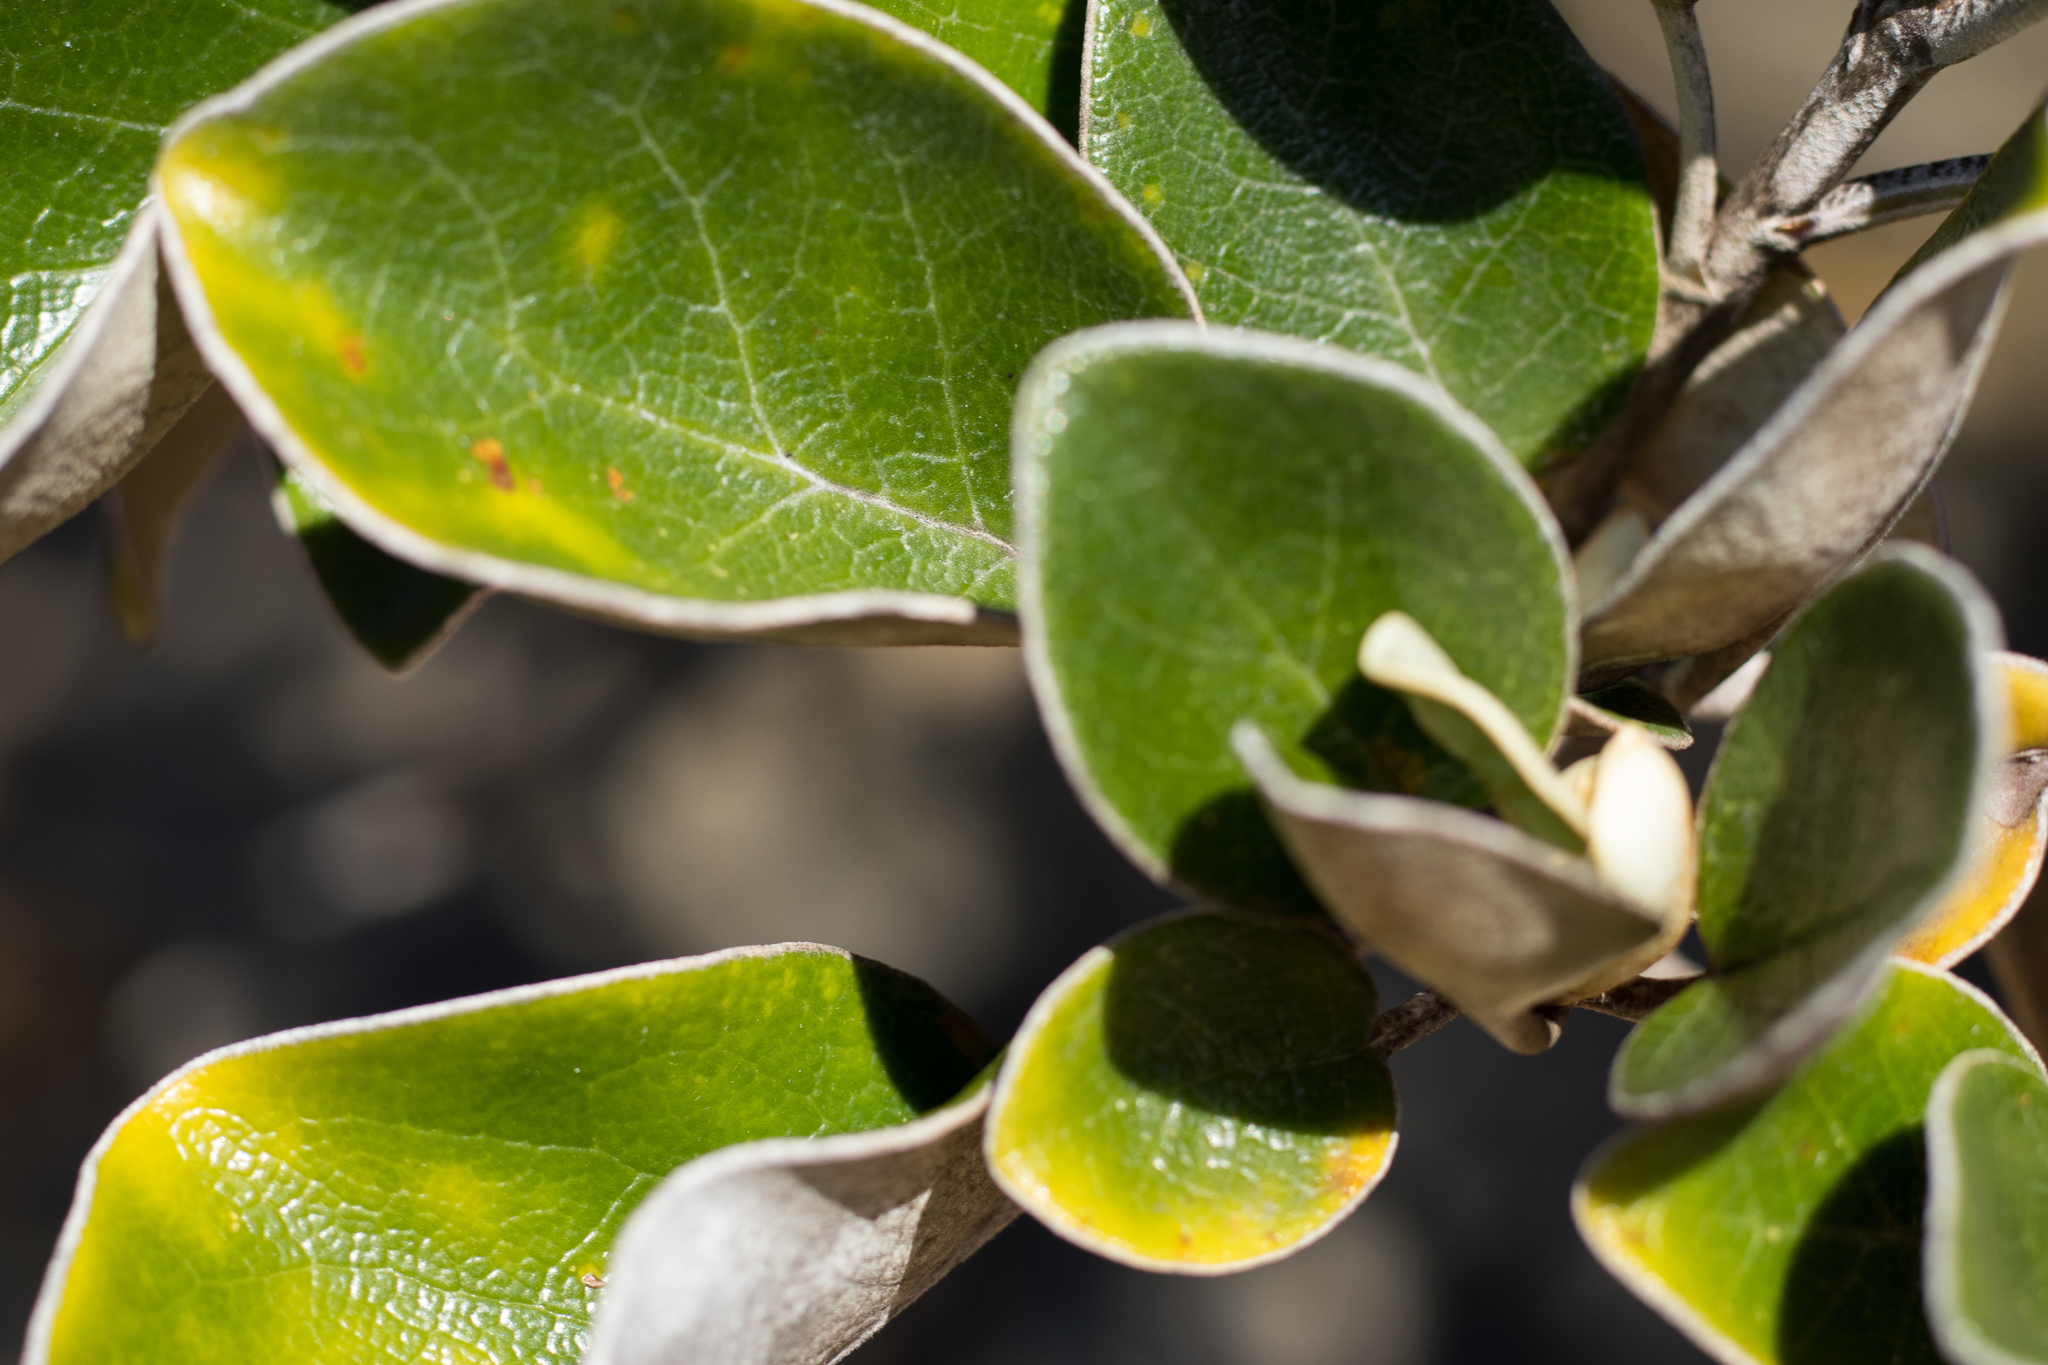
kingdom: Plantae
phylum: Tracheophyta
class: Magnoliopsida
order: Asterales
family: Asteraceae
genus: Brachyglottis
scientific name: Brachyglottis rotundifolia
